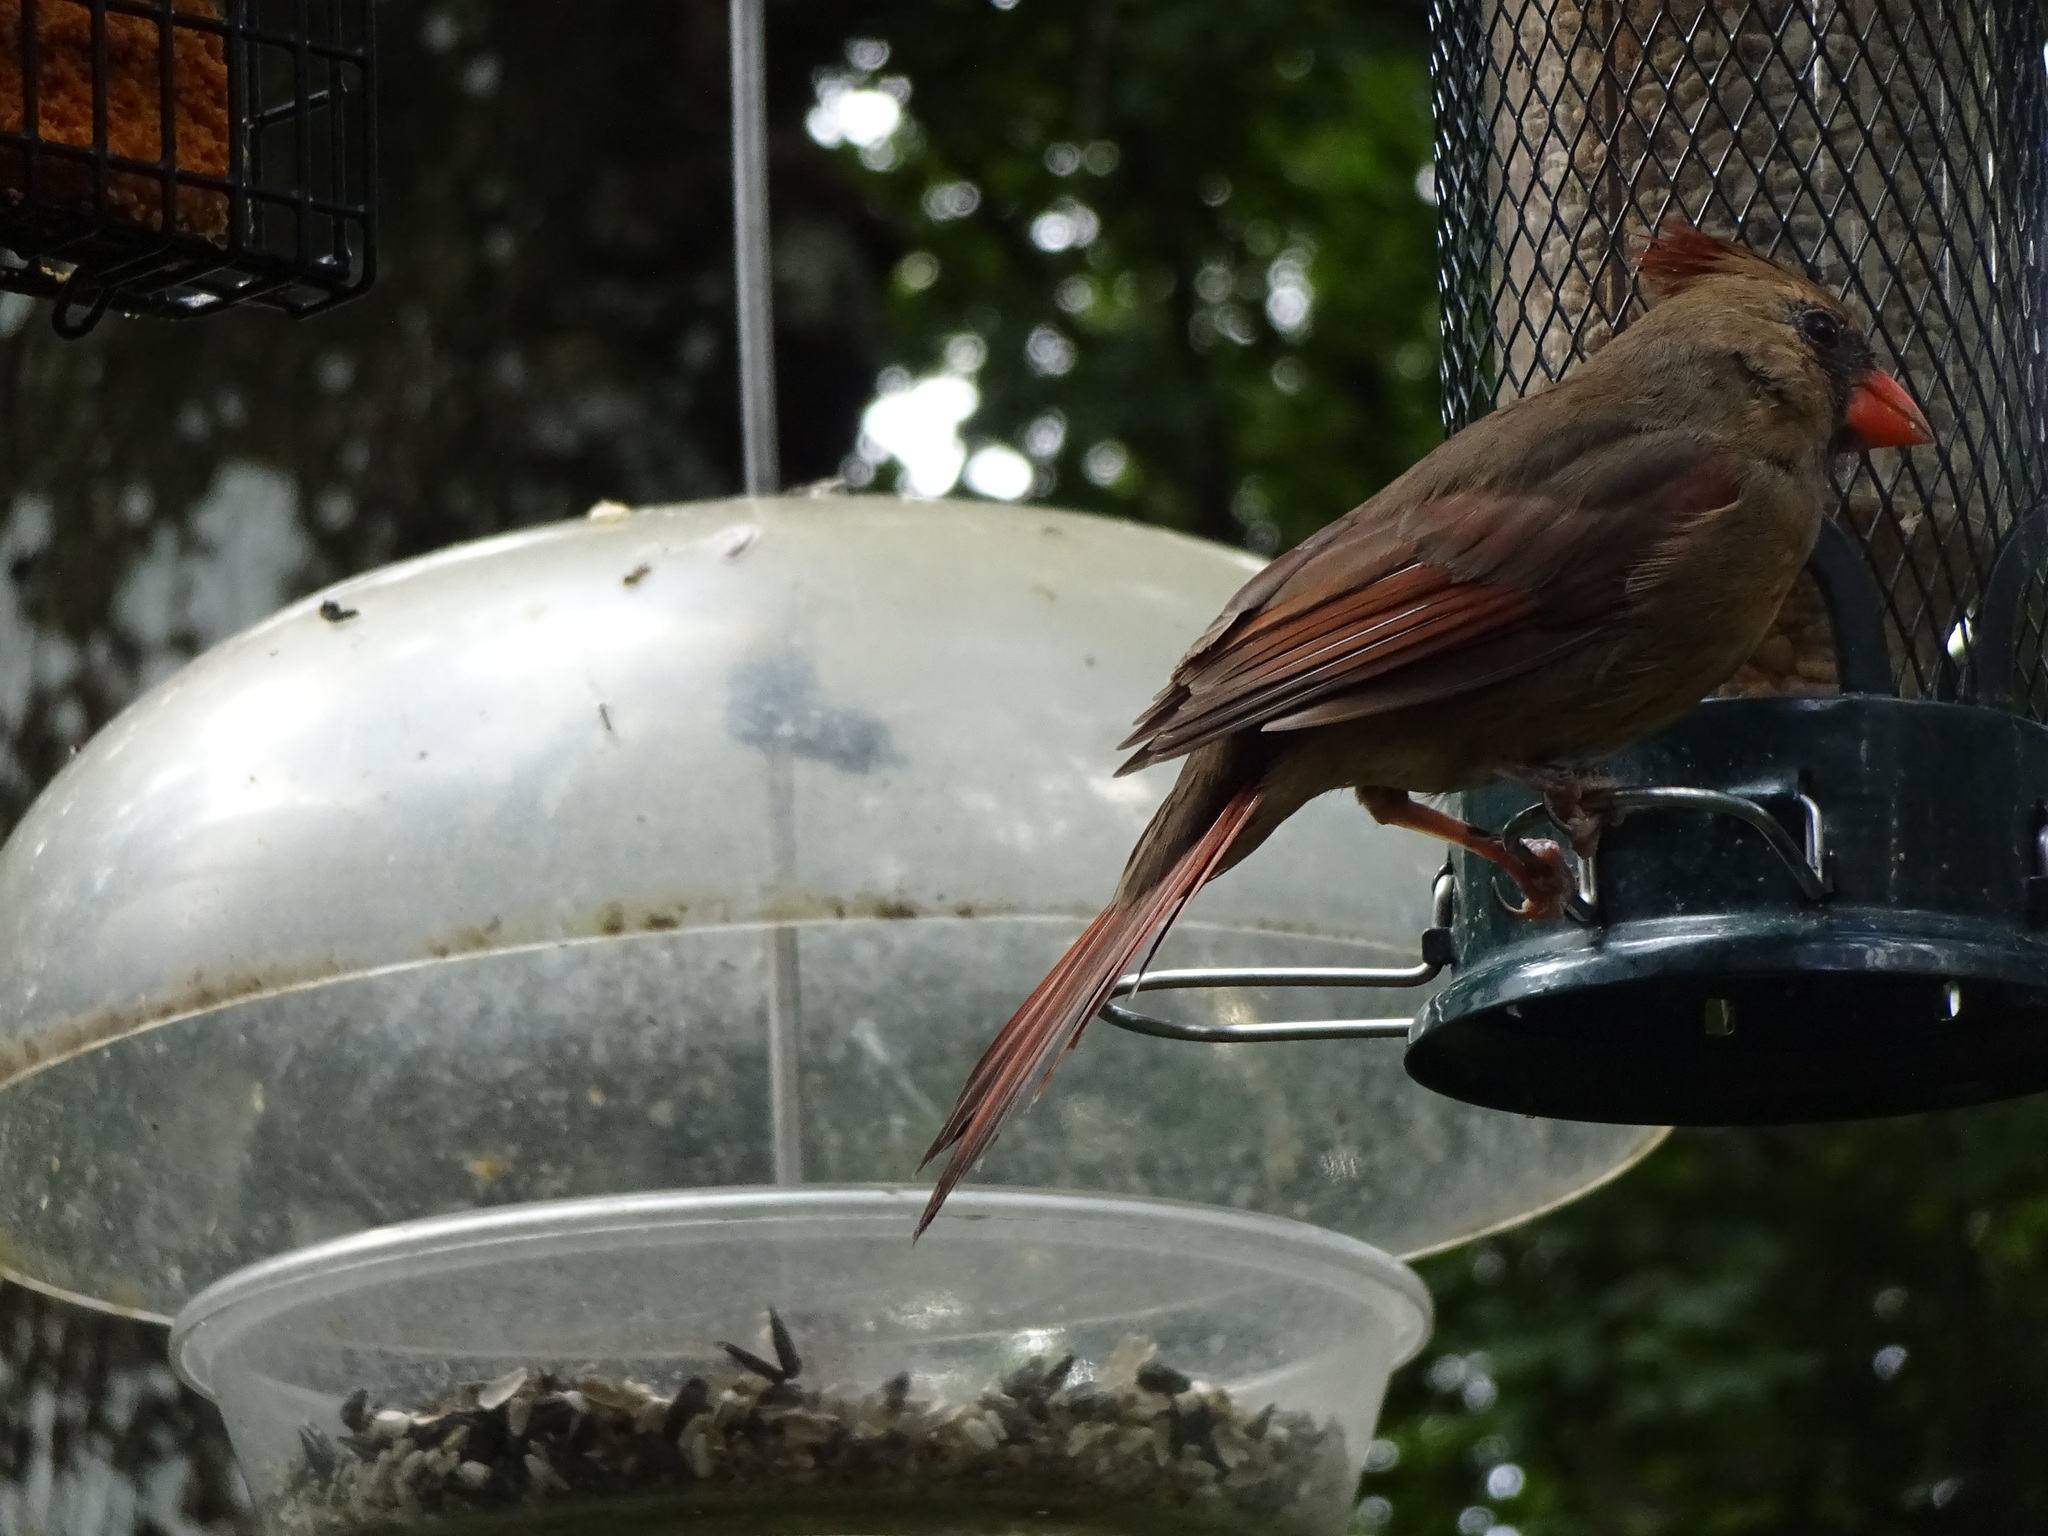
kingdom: Animalia
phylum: Chordata
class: Aves
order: Passeriformes
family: Cardinalidae
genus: Cardinalis
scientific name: Cardinalis cardinalis
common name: Northern cardinal
